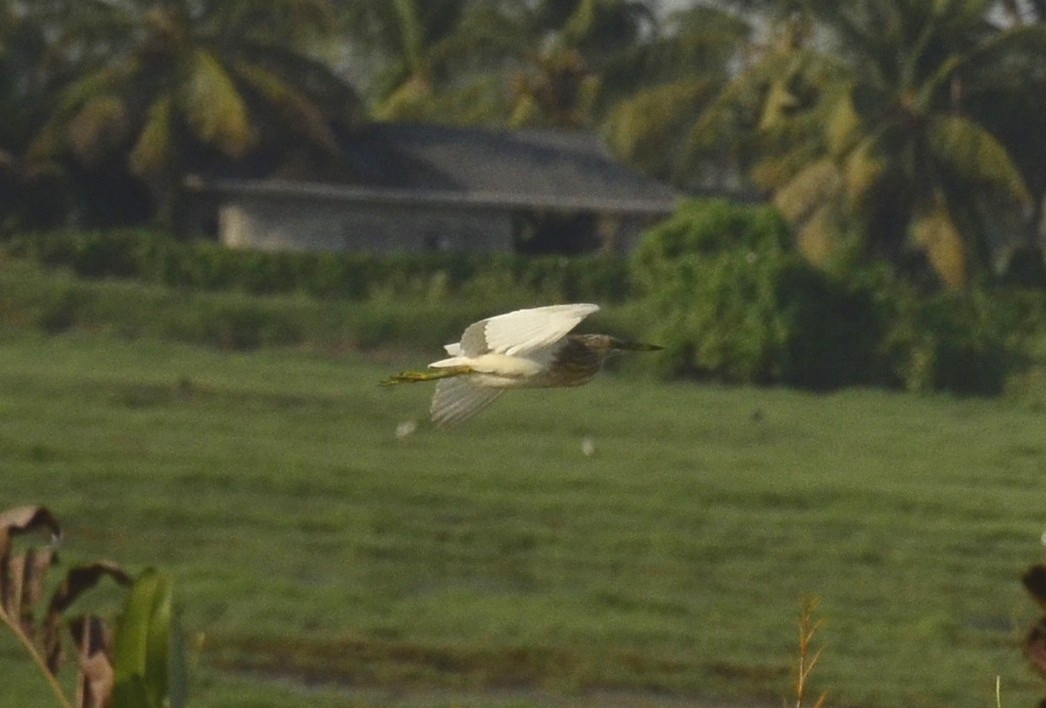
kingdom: Animalia
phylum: Chordata
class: Aves
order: Pelecaniformes
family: Ardeidae
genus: Ardeola
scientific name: Ardeola grayii
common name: Indian pond heron
